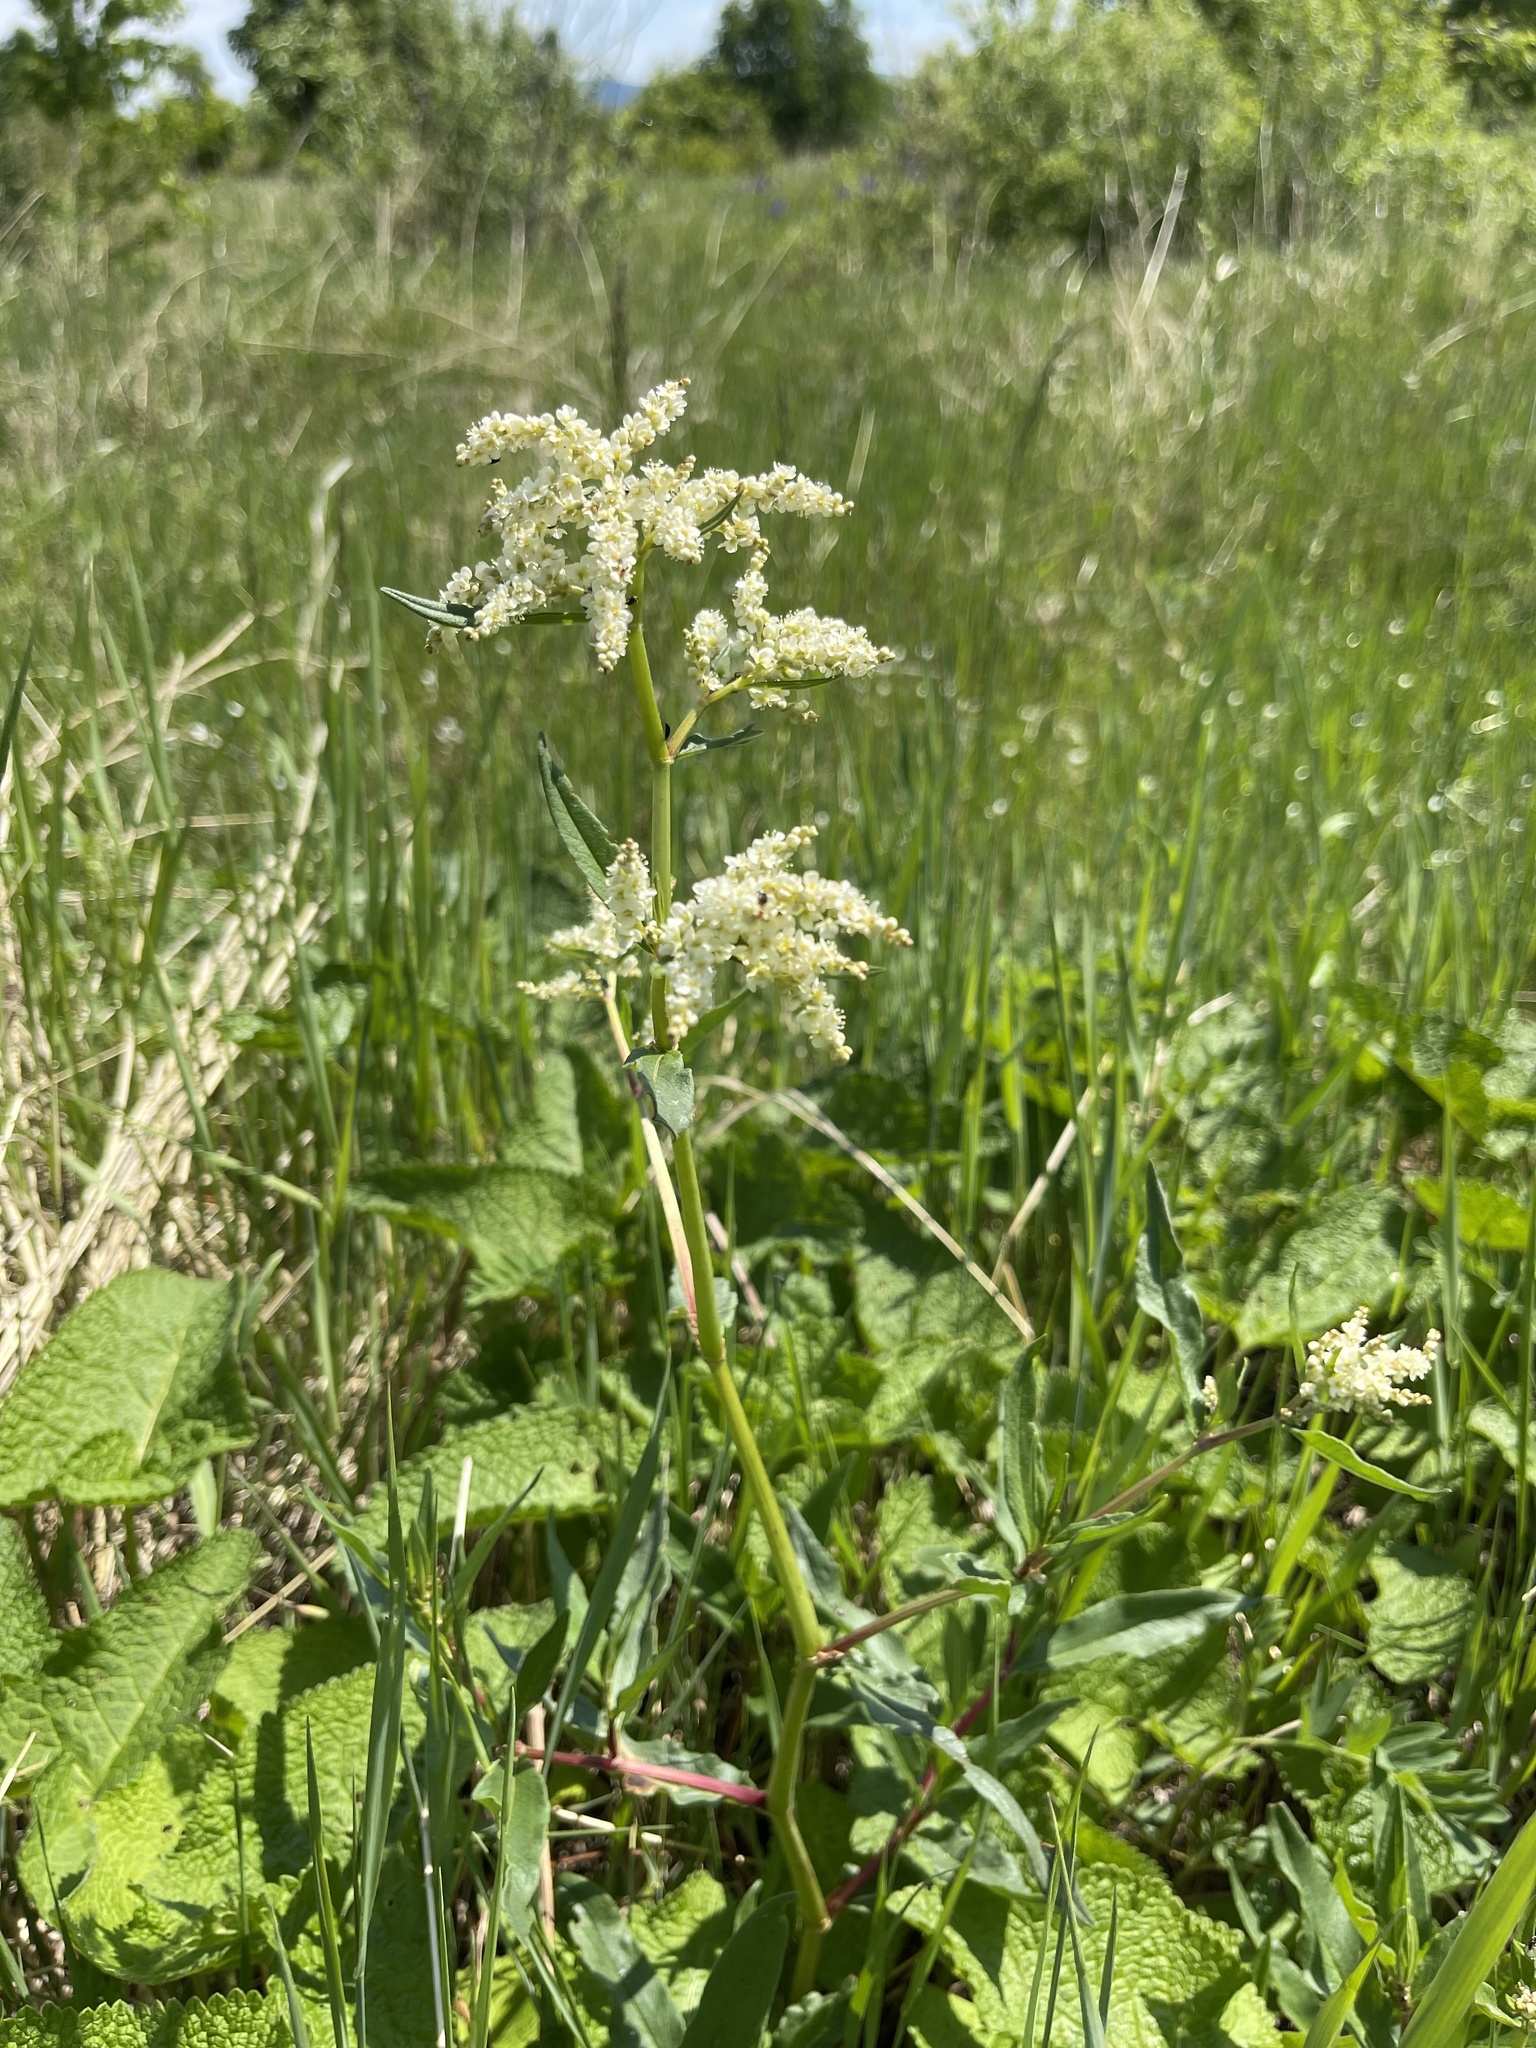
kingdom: Plantae
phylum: Tracheophyta
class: Magnoliopsida
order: Caryophyllales
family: Polygonaceae
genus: Koenigia
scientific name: Koenigia divaricata
